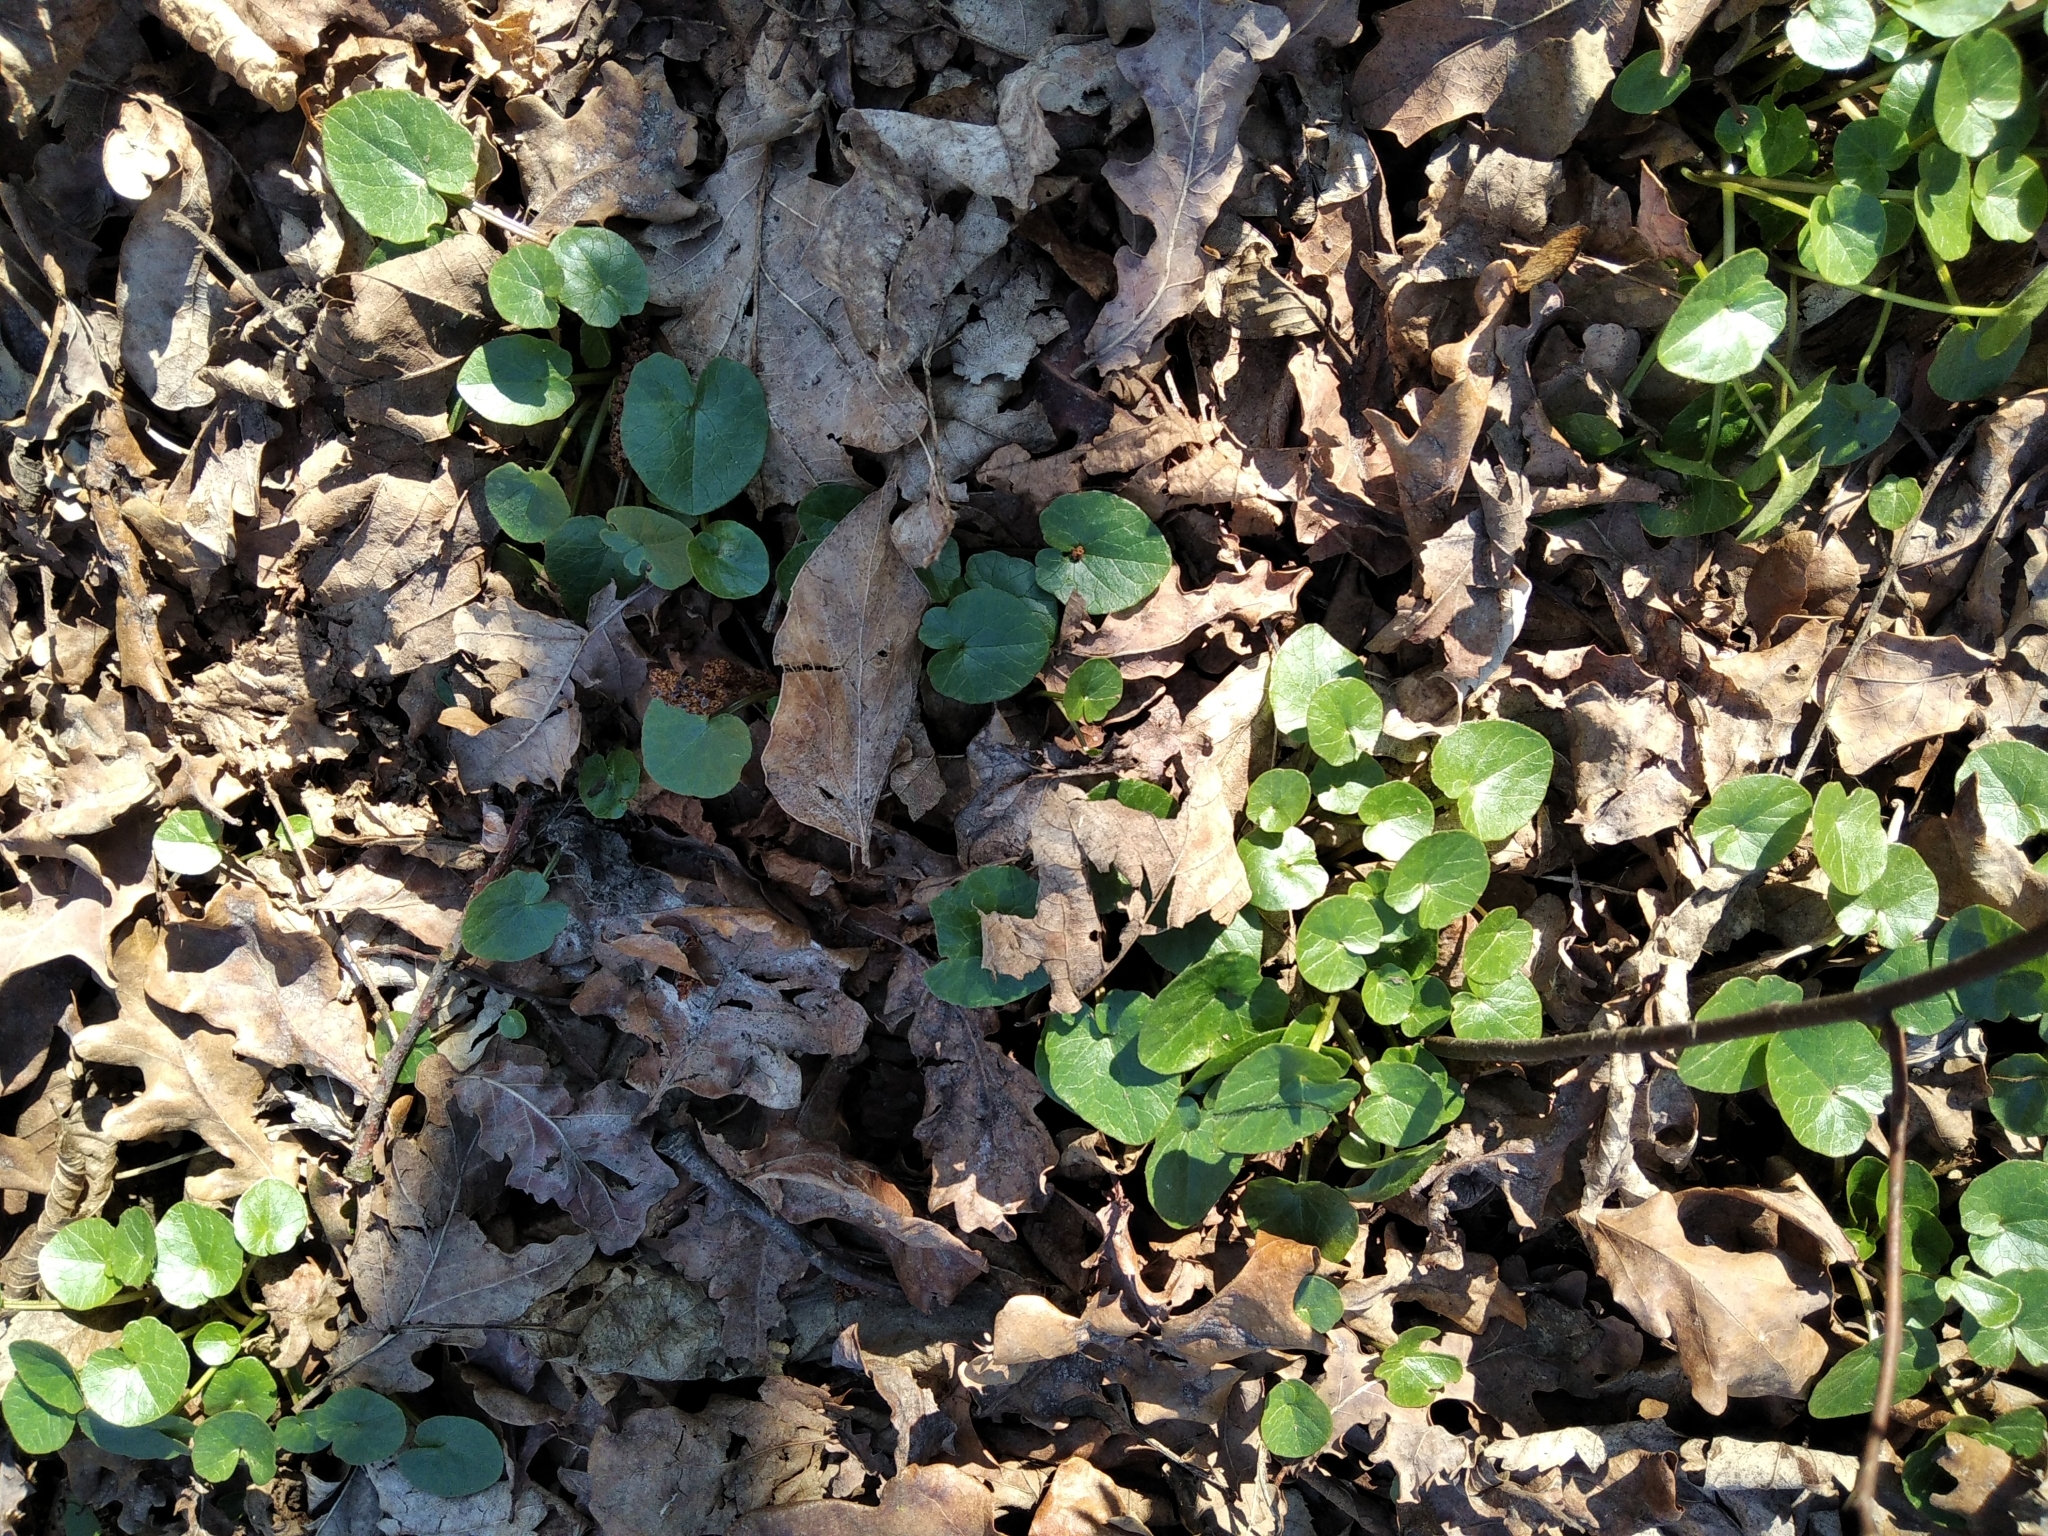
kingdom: Plantae
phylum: Tracheophyta
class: Magnoliopsida
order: Ranunculales
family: Ranunculaceae
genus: Ficaria
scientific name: Ficaria verna
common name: Lesser celandine
